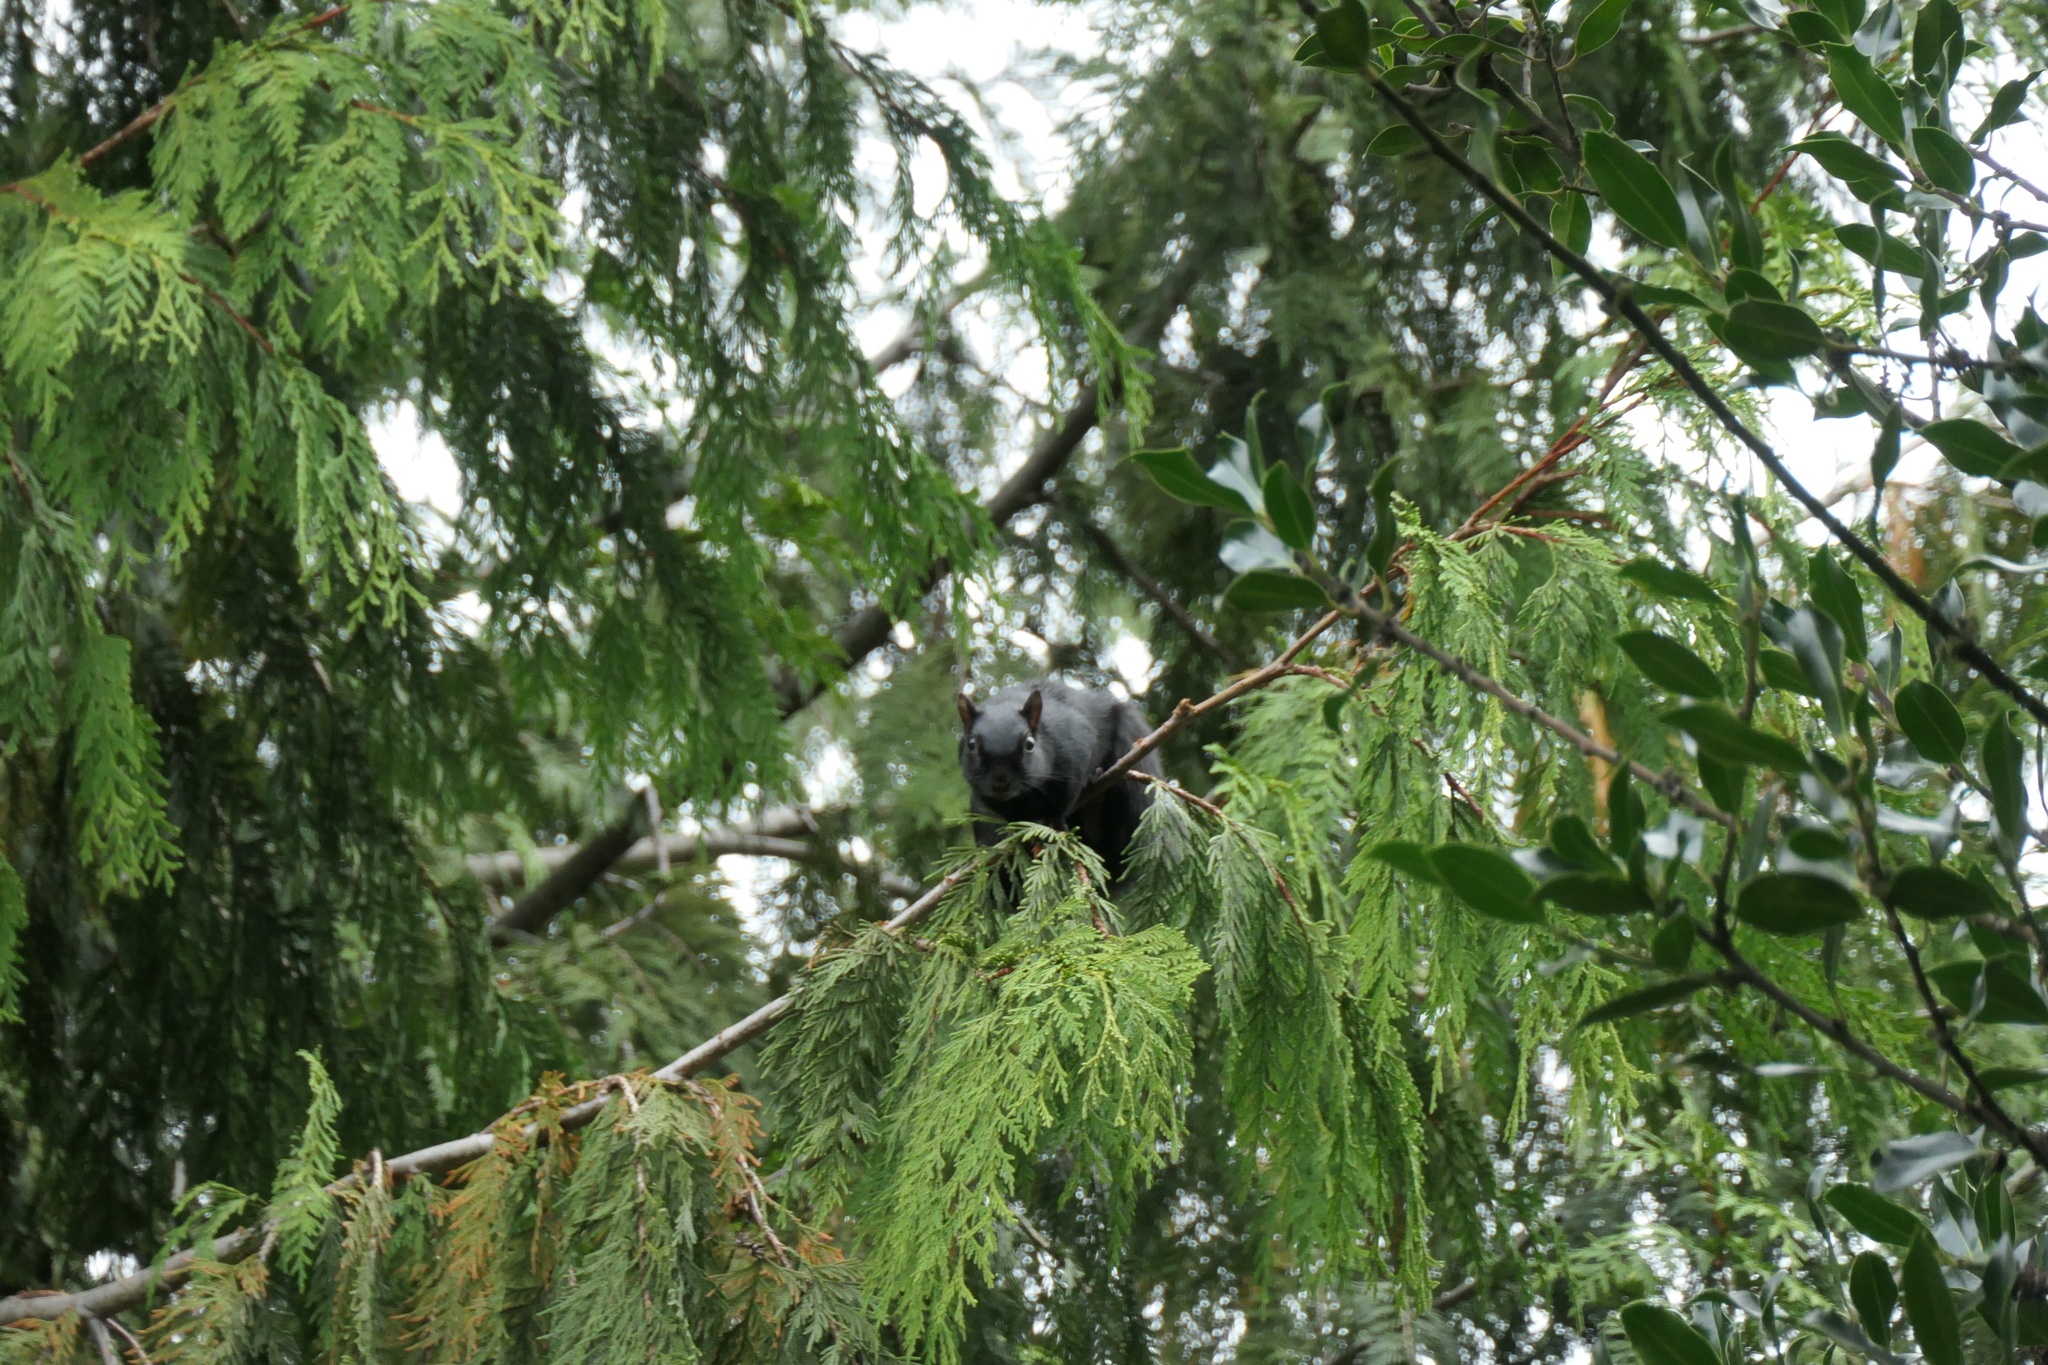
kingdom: Animalia
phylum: Chordata
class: Mammalia
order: Rodentia
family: Sciuridae
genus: Sciurus
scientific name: Sciurus carolinensis
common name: Eastern gray squirrel
